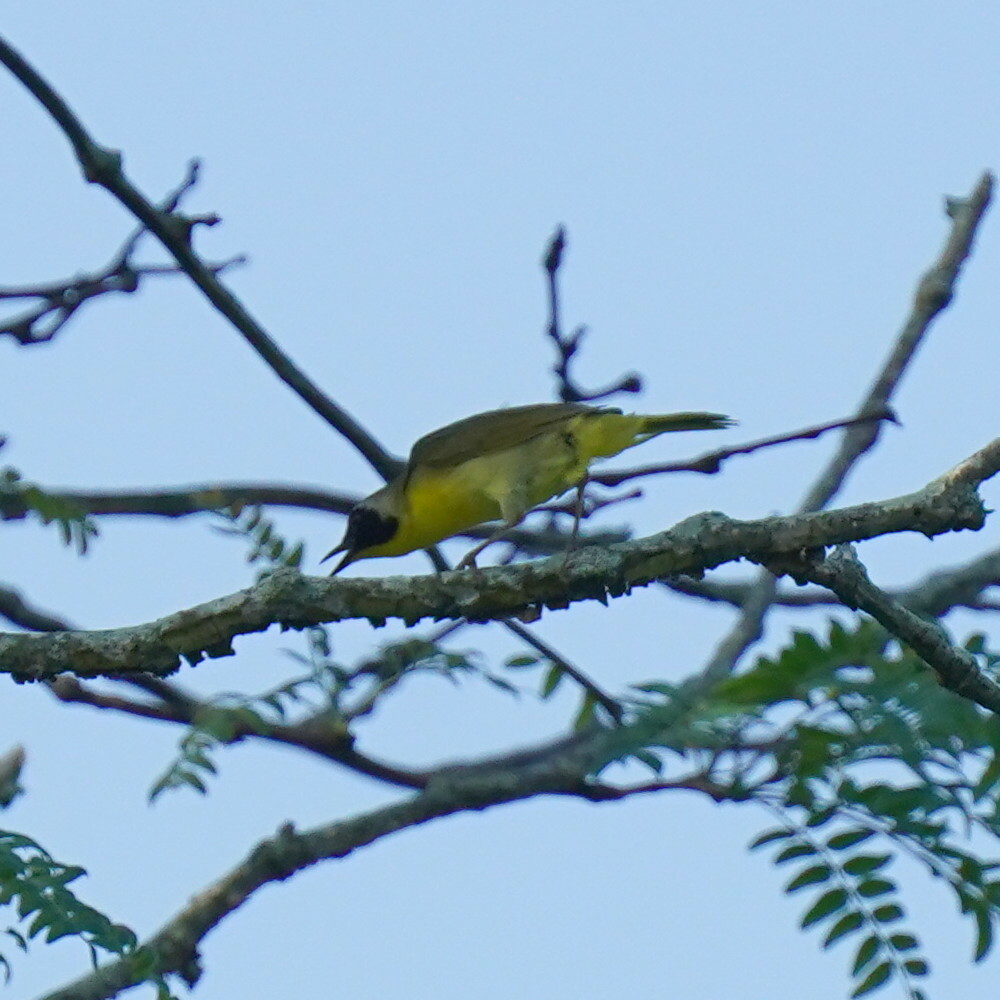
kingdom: Animalia
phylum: Chordata
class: Aves
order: Passeriformes
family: Parulidae
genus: Geothlypis
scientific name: Geothlypis trichas
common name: Common yellowthroat
